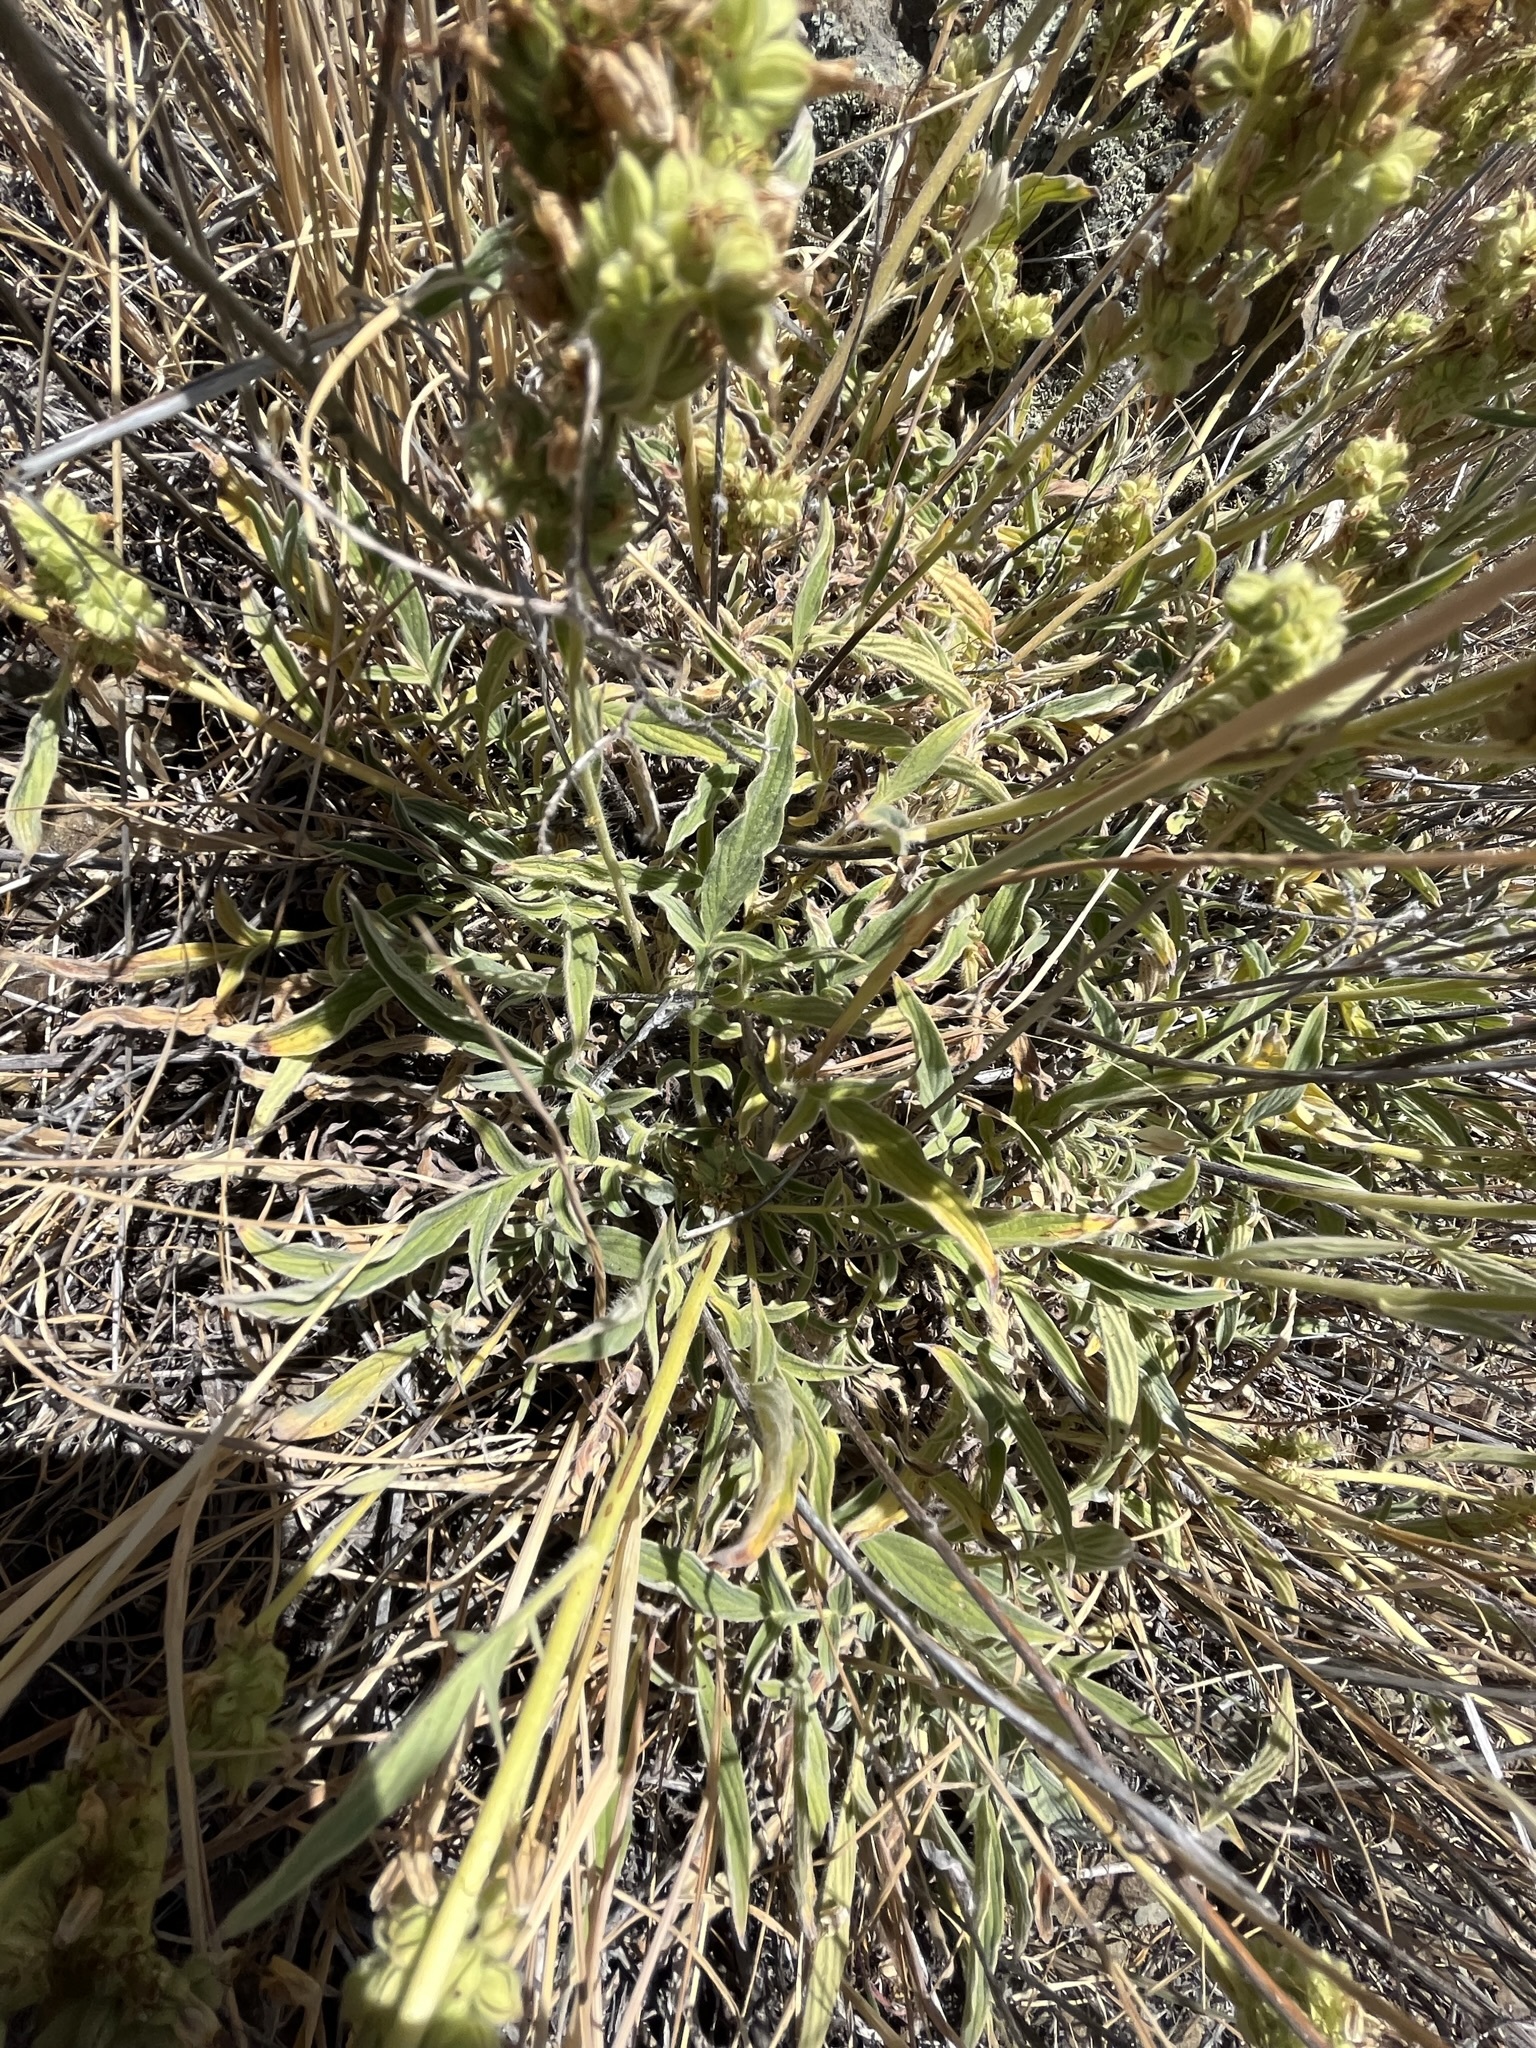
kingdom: Plantae
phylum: Tracheophyta
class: Magnoliopsida
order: Boraginales
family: Hydrophyllaceae
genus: Phacelia
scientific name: Phacelia imbricata
